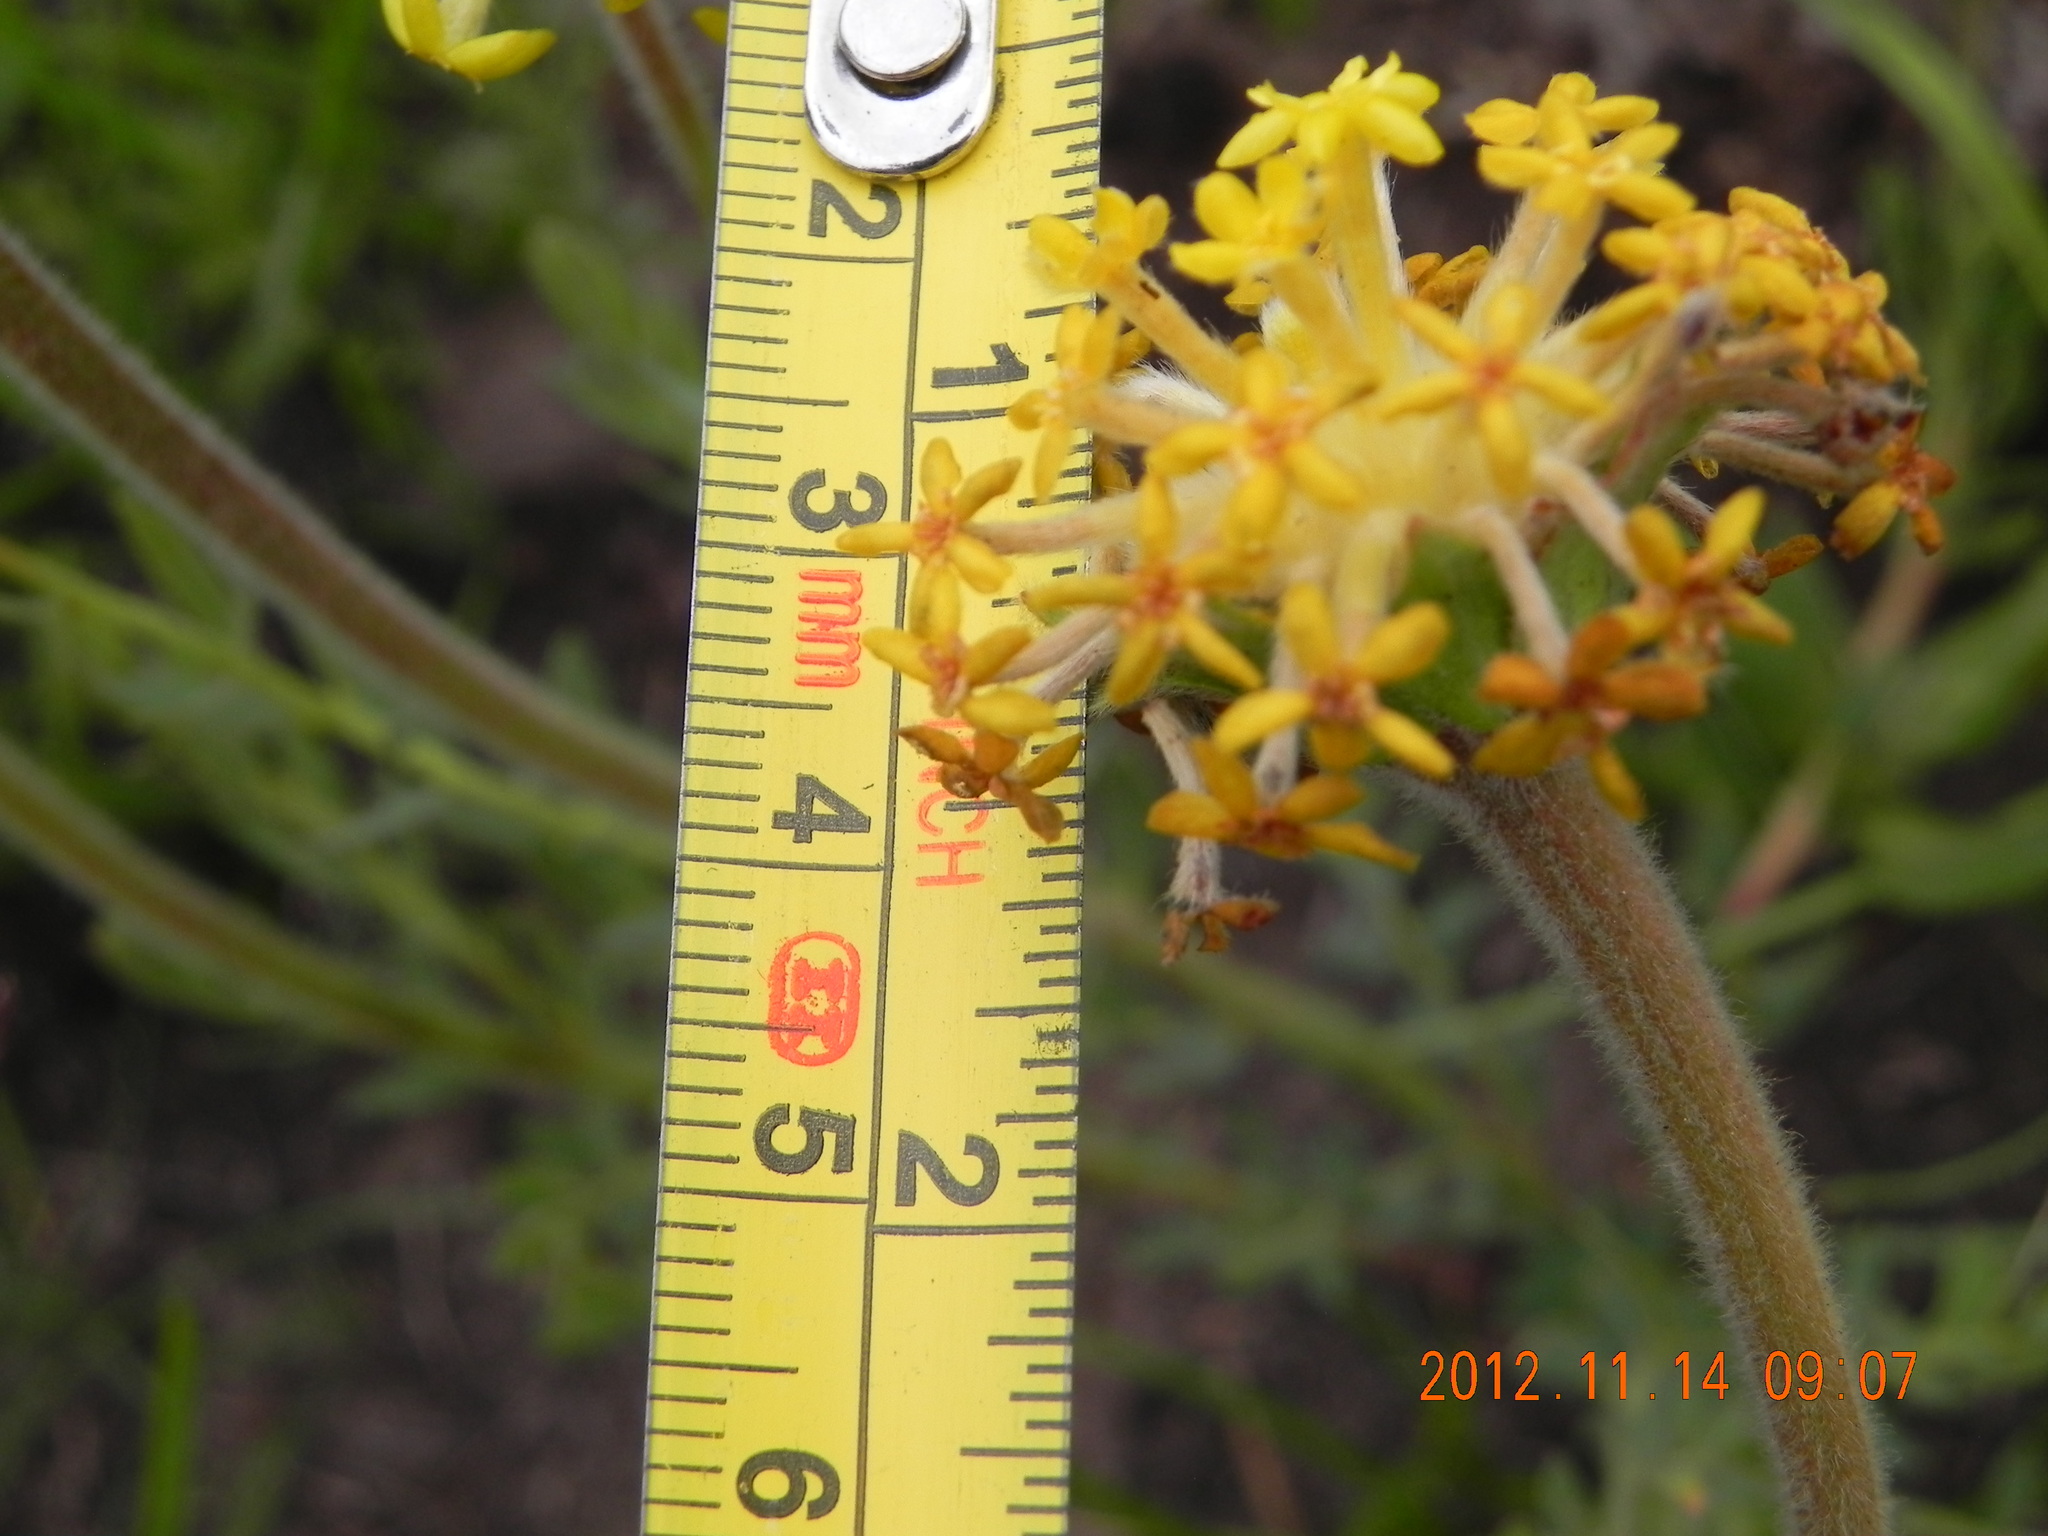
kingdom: Plantae
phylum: Tracheophyta
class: Magnoliopsida
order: Malvales
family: Thymelaeaceae
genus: Gnidia
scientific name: Gnidia kraussiana
